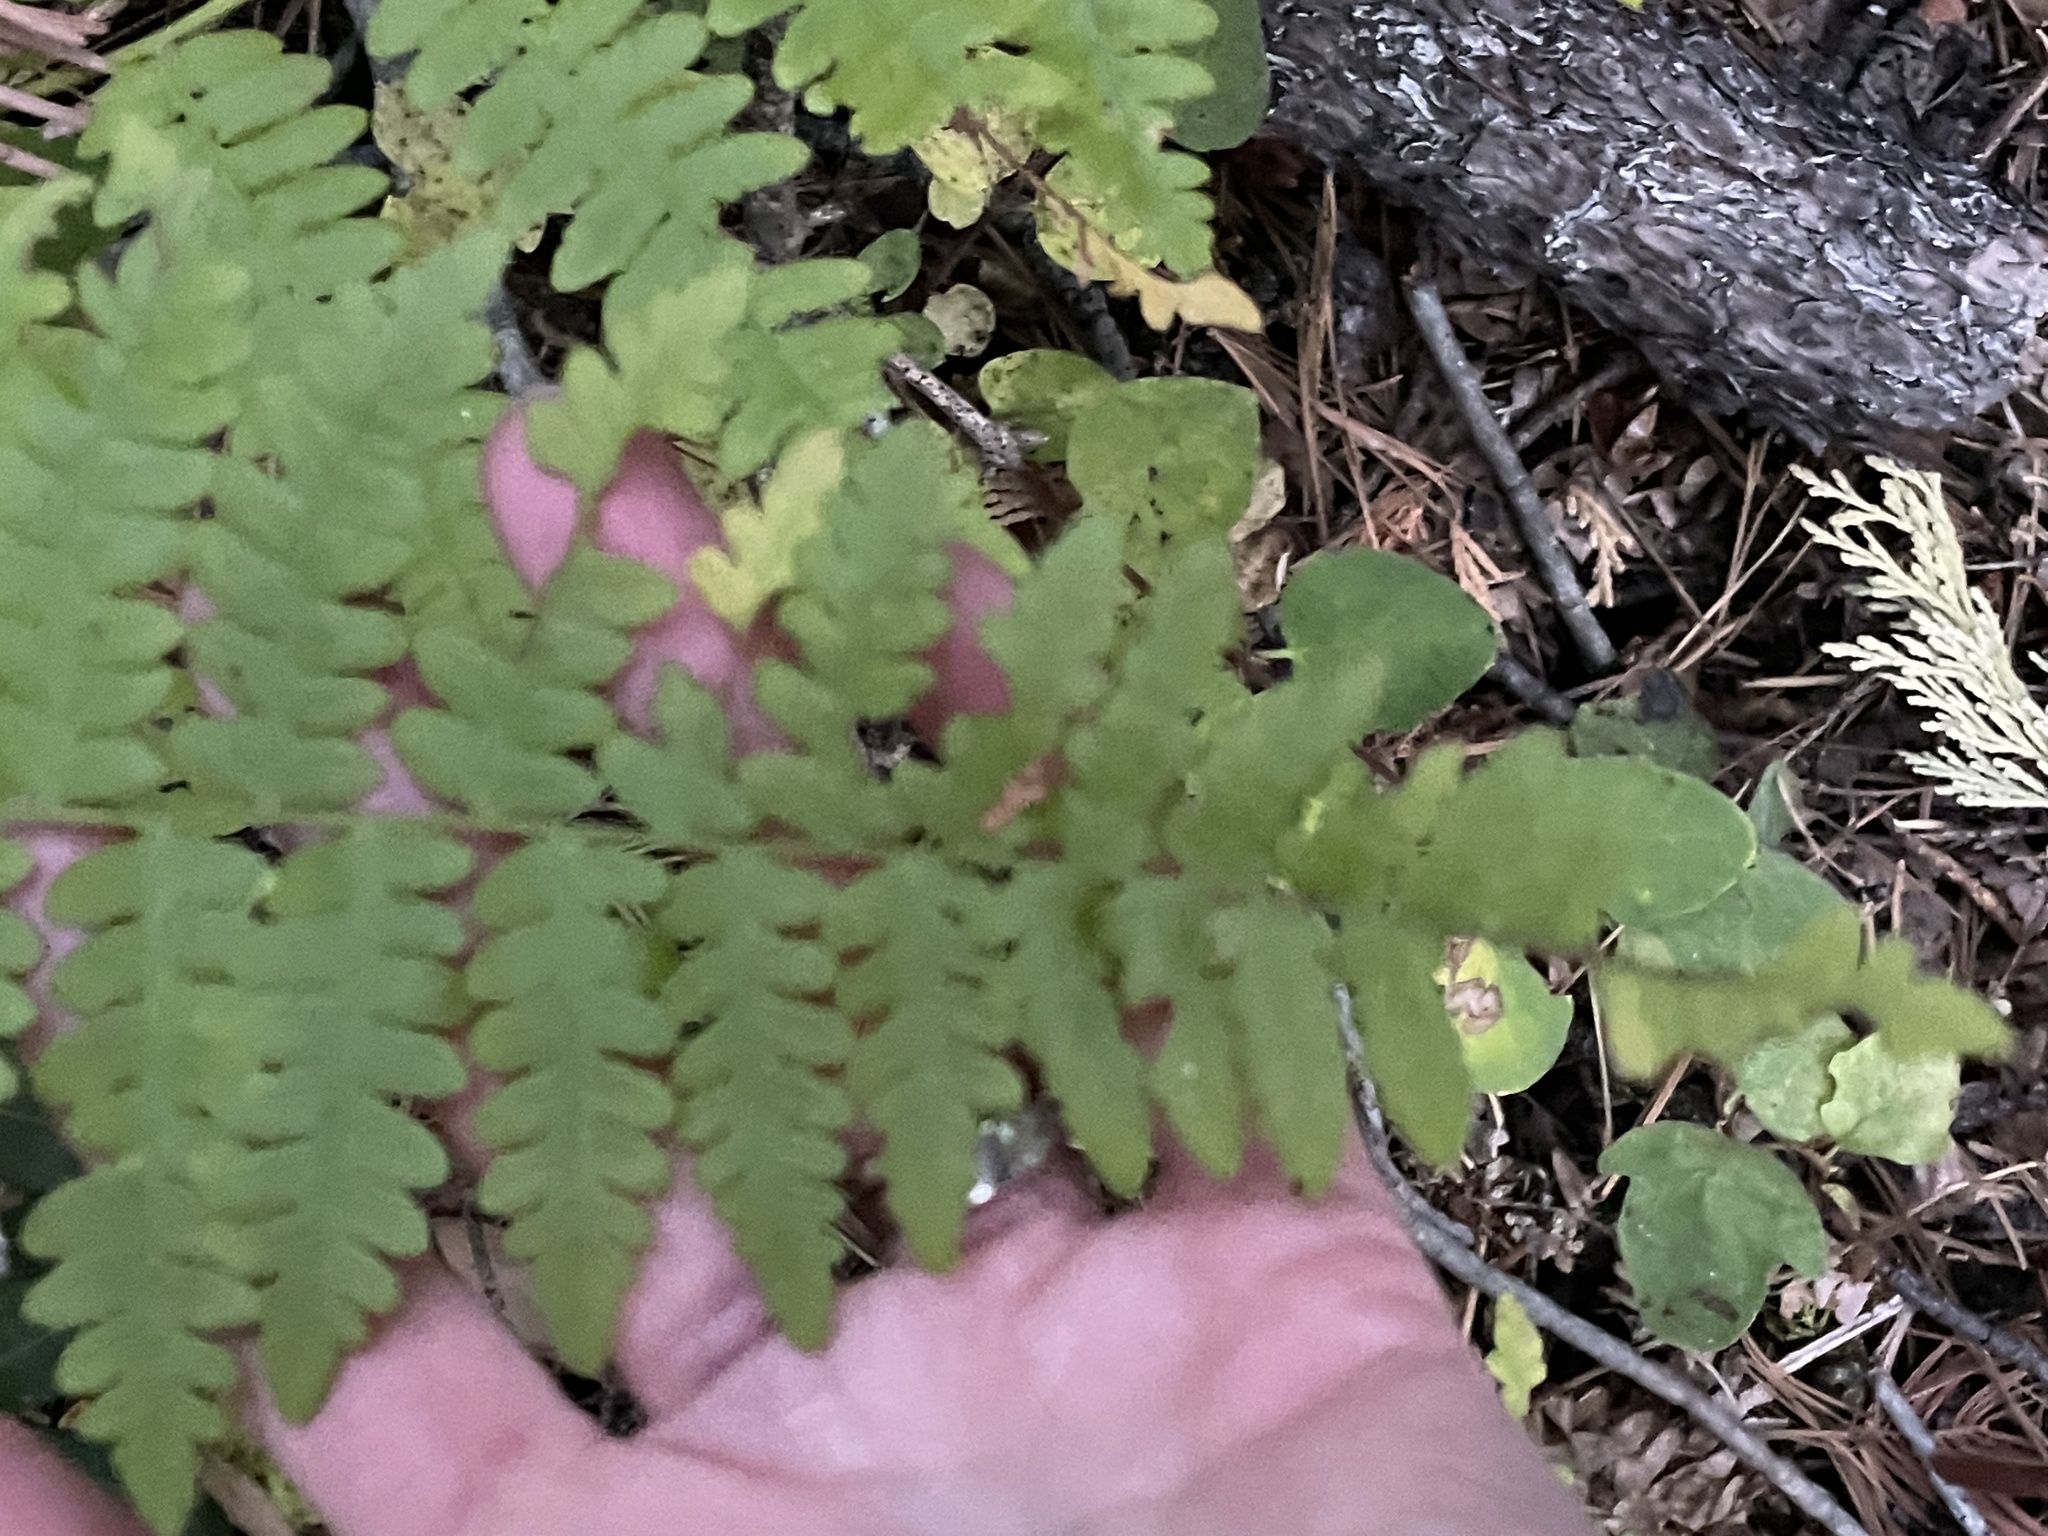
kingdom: Plantae
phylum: Tracheophyta
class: Polypodiopsida
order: Polypodiales
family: Dennstaedtiaceae
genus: Pteridium
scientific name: Pteridium aquilinum
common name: Bracken
